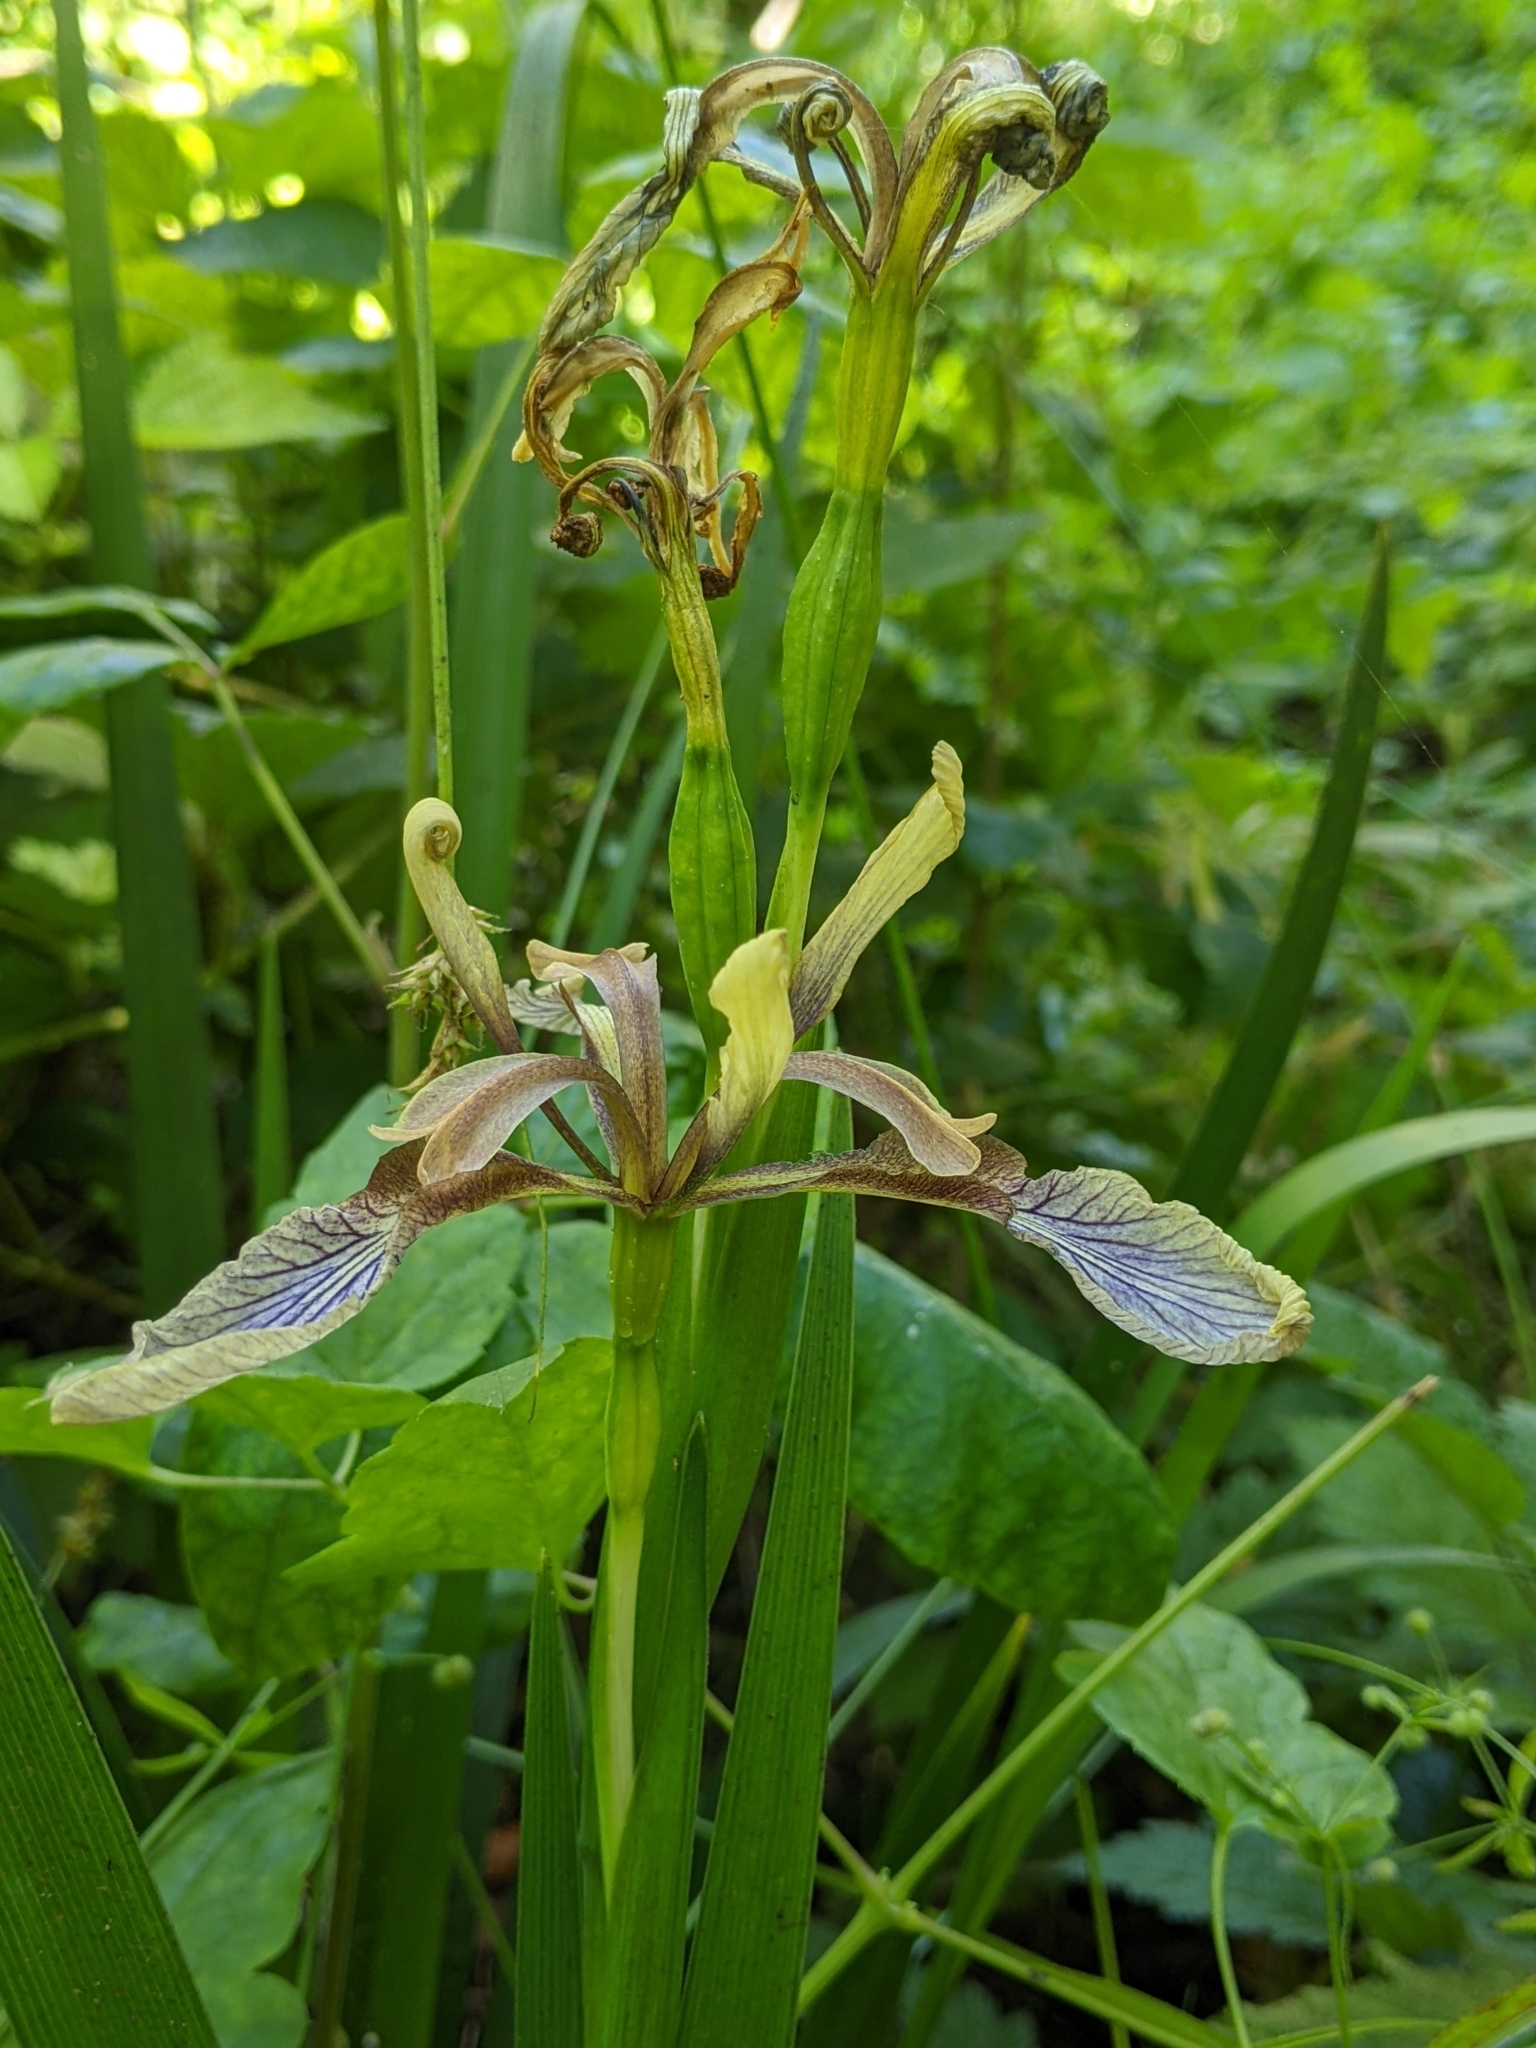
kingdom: Plantae
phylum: Tracheophyta
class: Liliopsida
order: Asparagales
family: Iridaceae
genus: Iris
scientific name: Iris foetidissima
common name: Stinking iris
